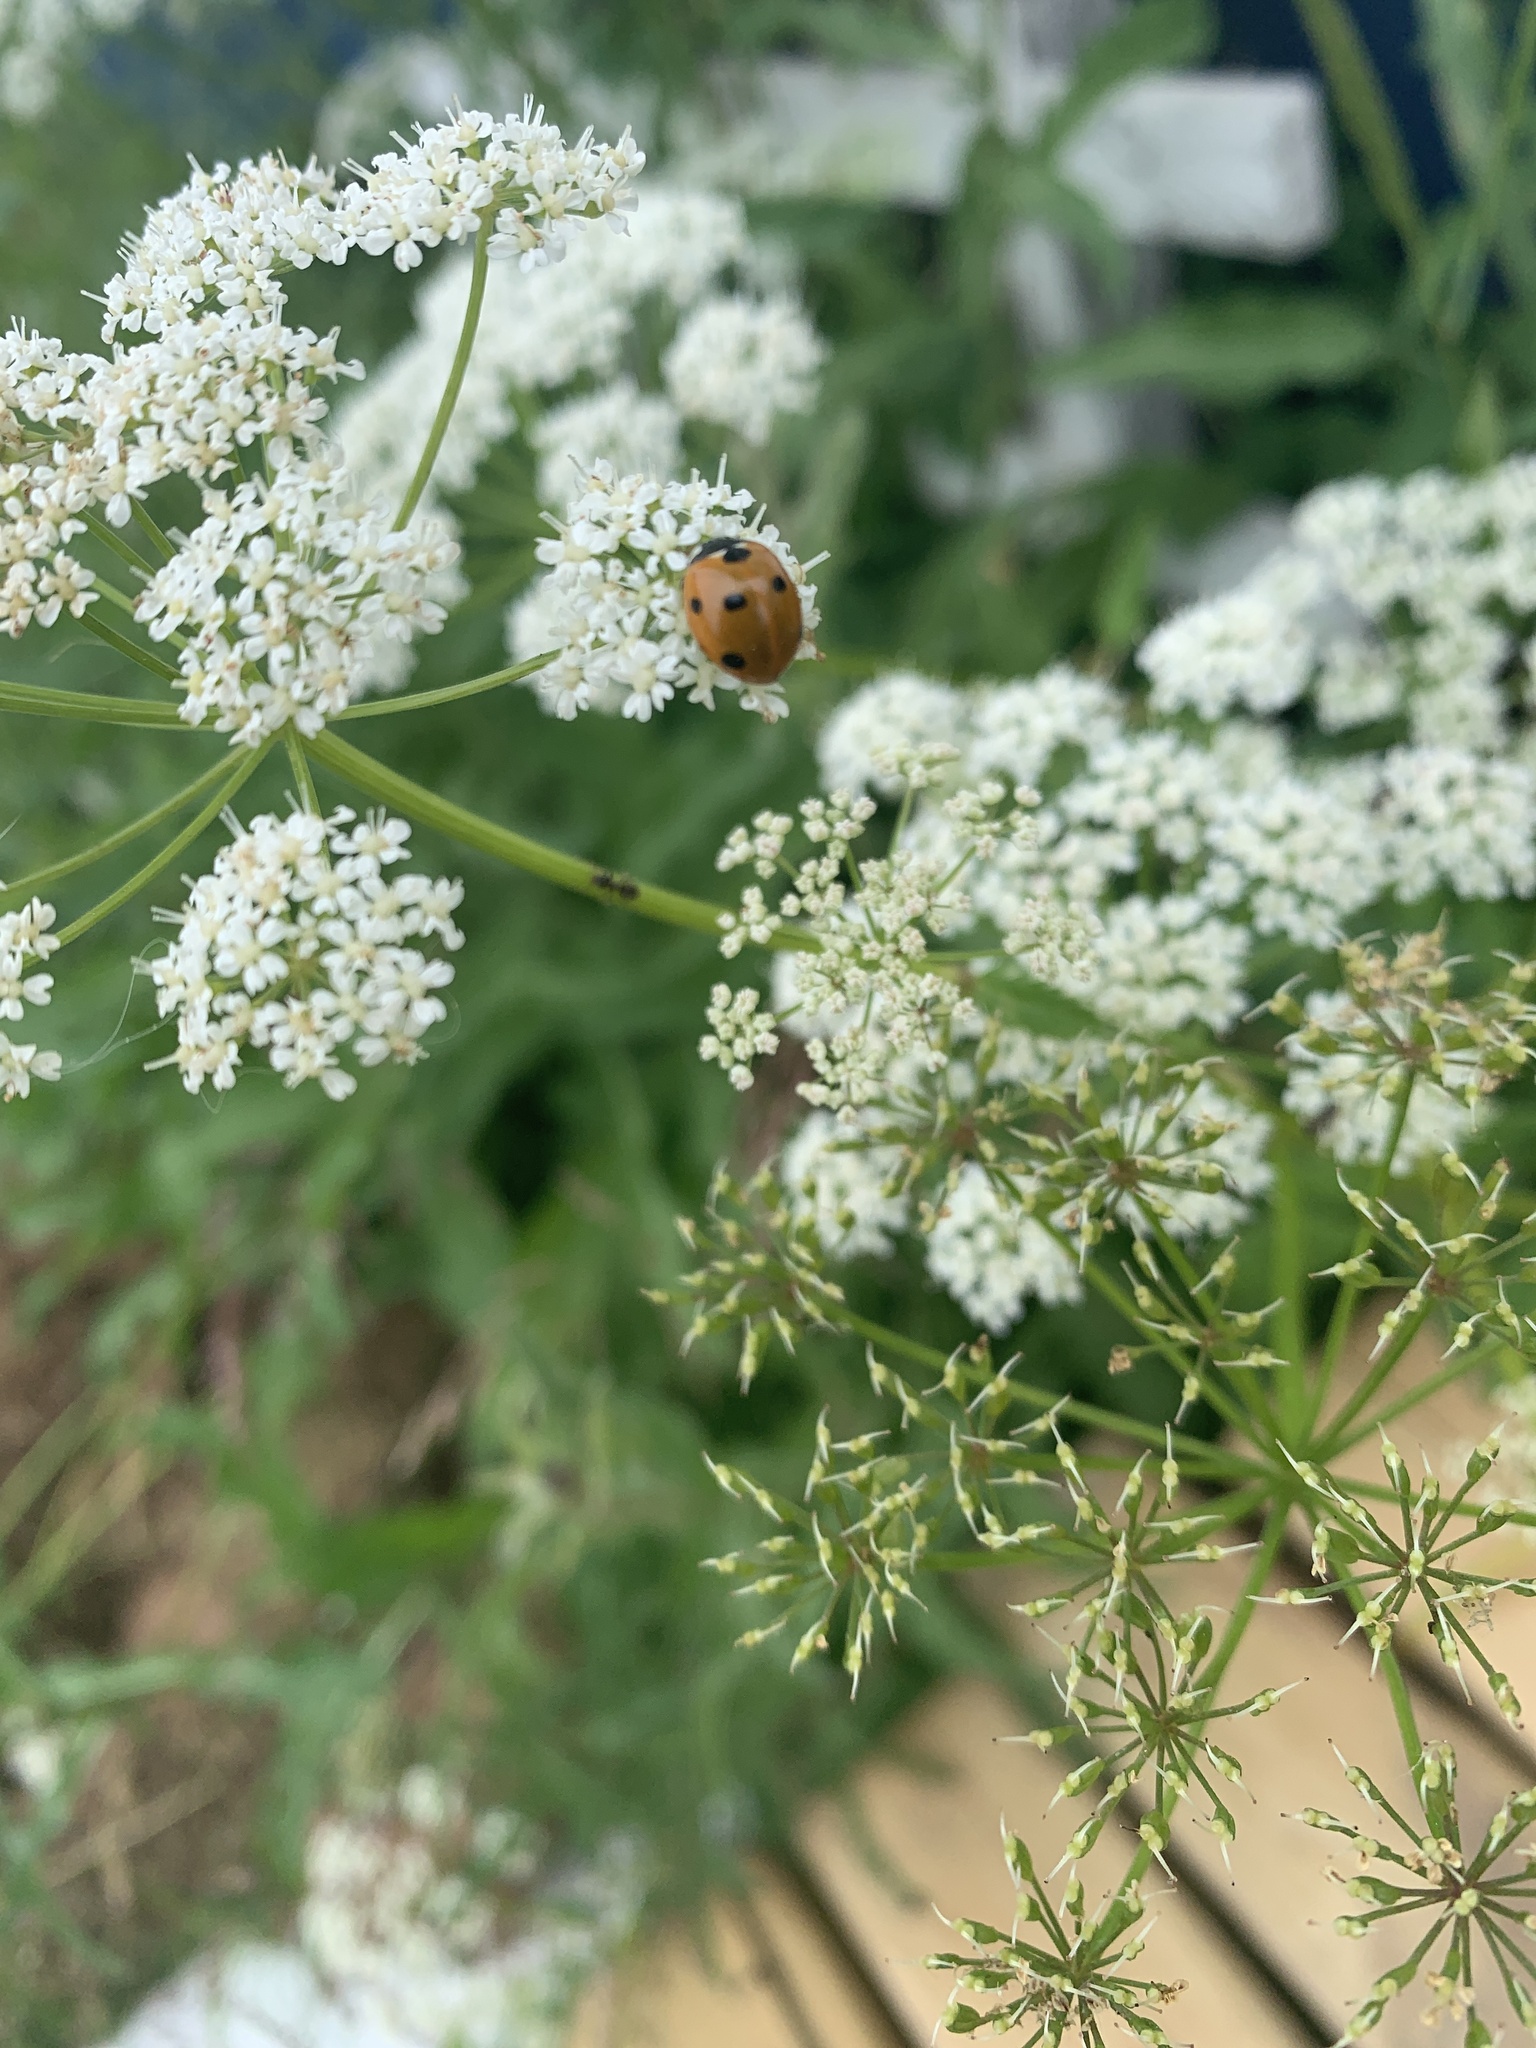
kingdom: Animalia
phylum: Arthropoda
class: Insecta
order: Coleoptera
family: Coccinellidae
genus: Coccinella
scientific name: Coccinella septempunctata
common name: Sevenspotted lady beetle
